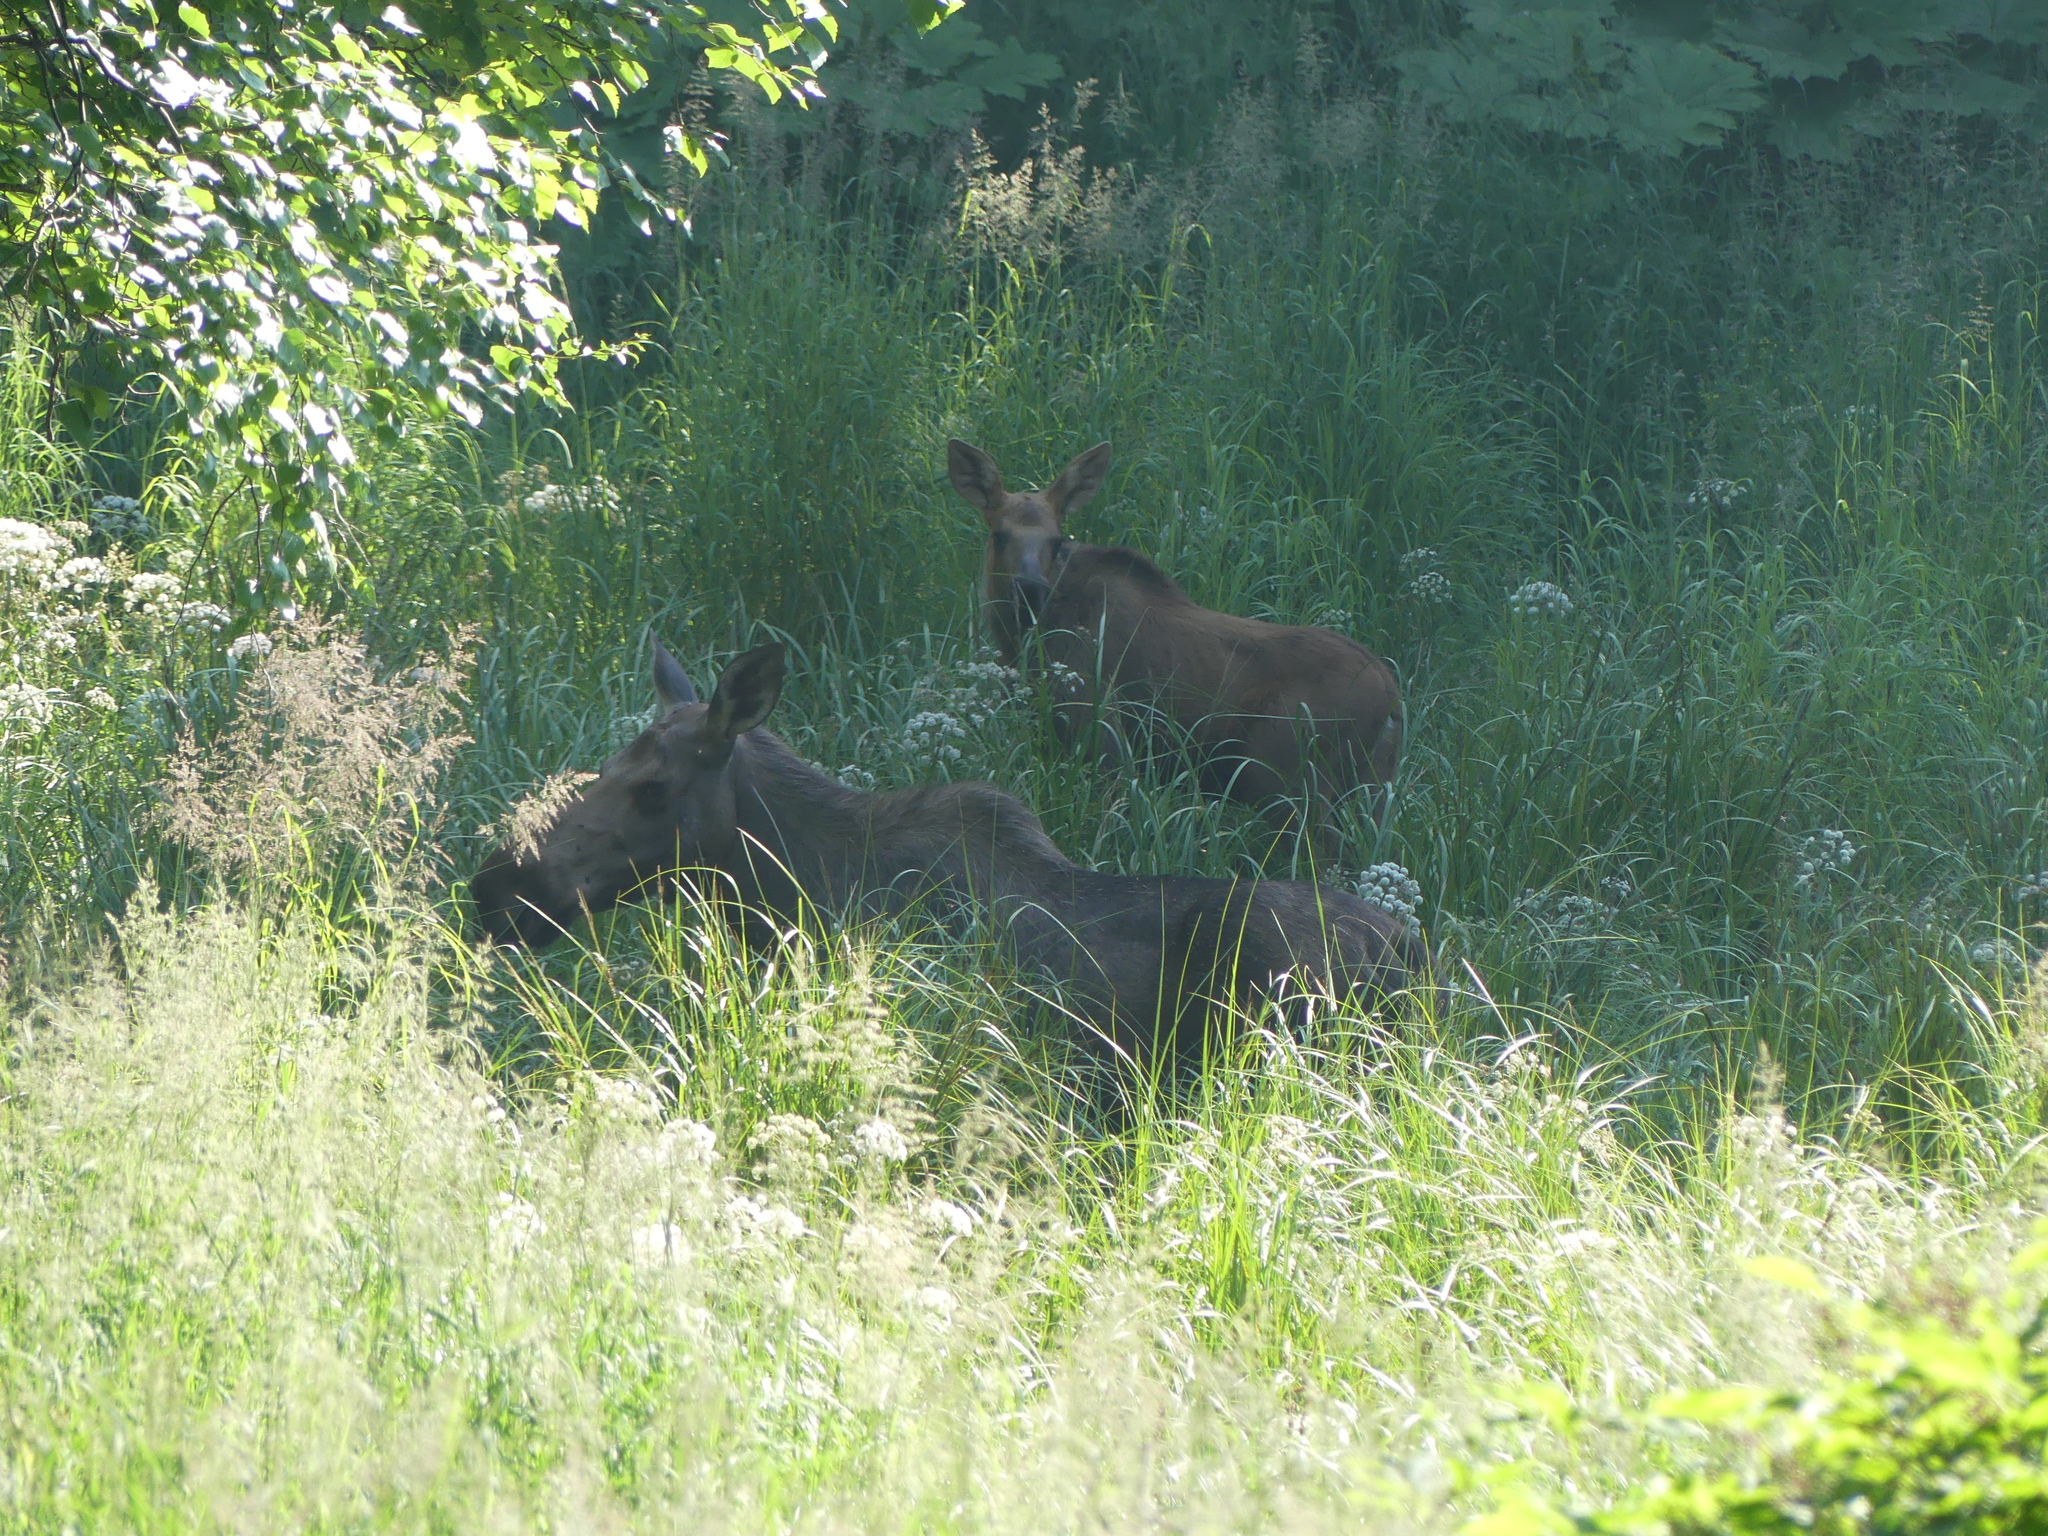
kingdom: Animalia
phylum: Chordata
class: Mammalia
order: Artiodactyla
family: Cervidae
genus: Alces
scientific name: Alces alces
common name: Moose
